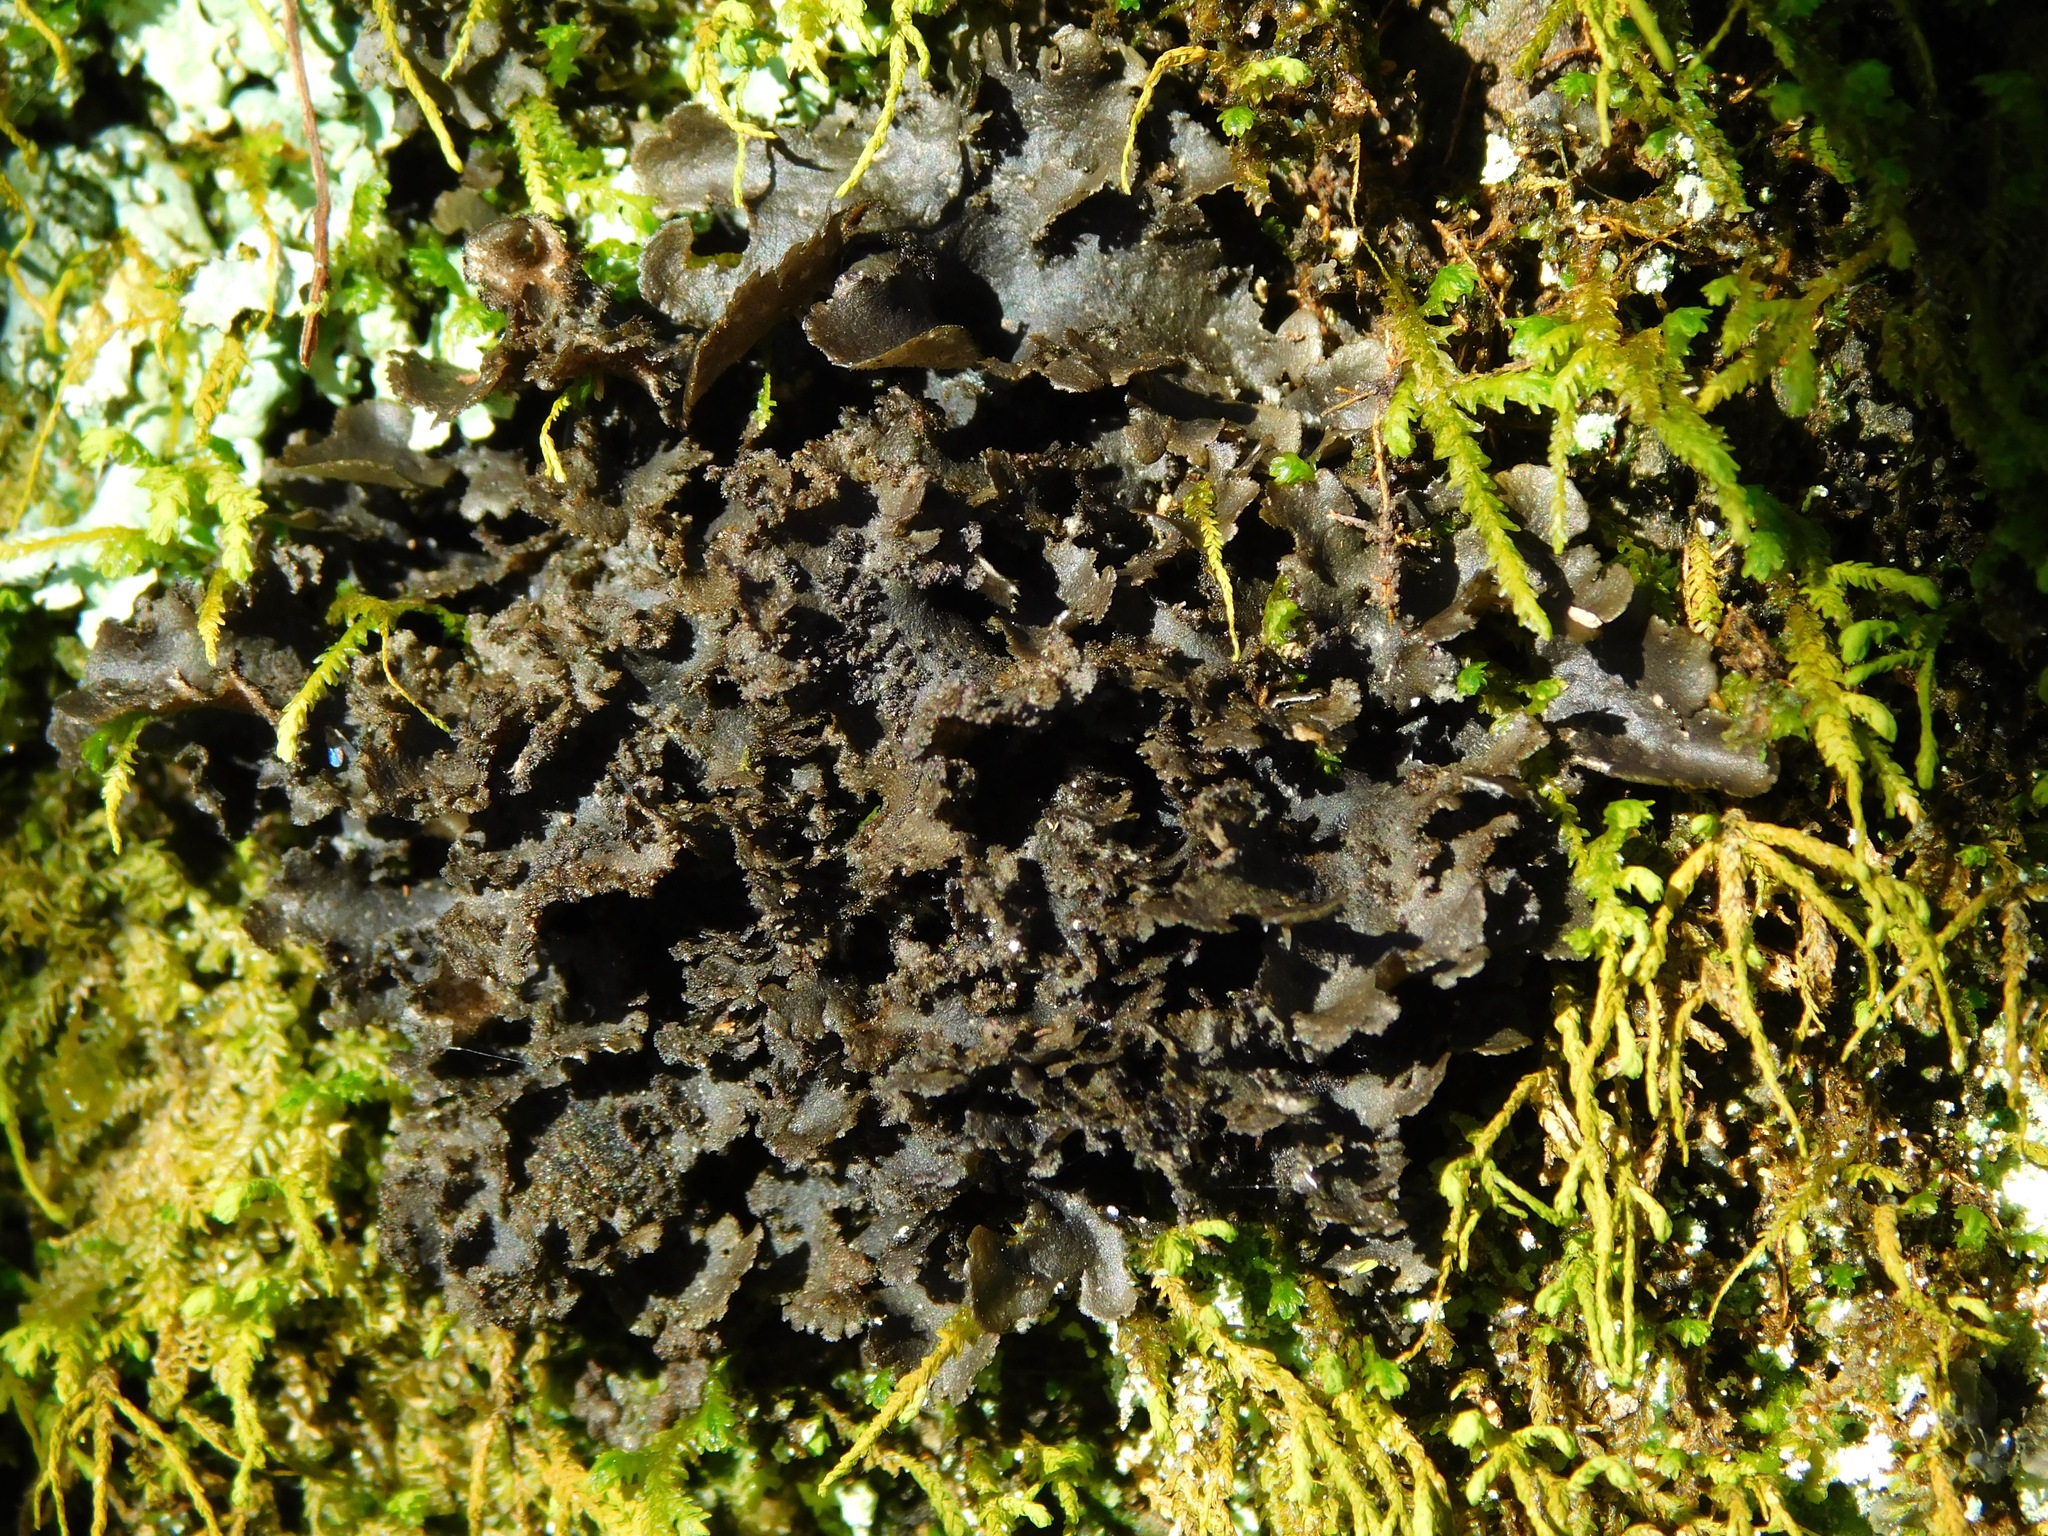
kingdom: Fungi
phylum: Ascomycota
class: Lecanoromycetes
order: Peltigerales
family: Lobariaceae
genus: Sticta
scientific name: Sticta carolinensis
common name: Carolina moon lichen
